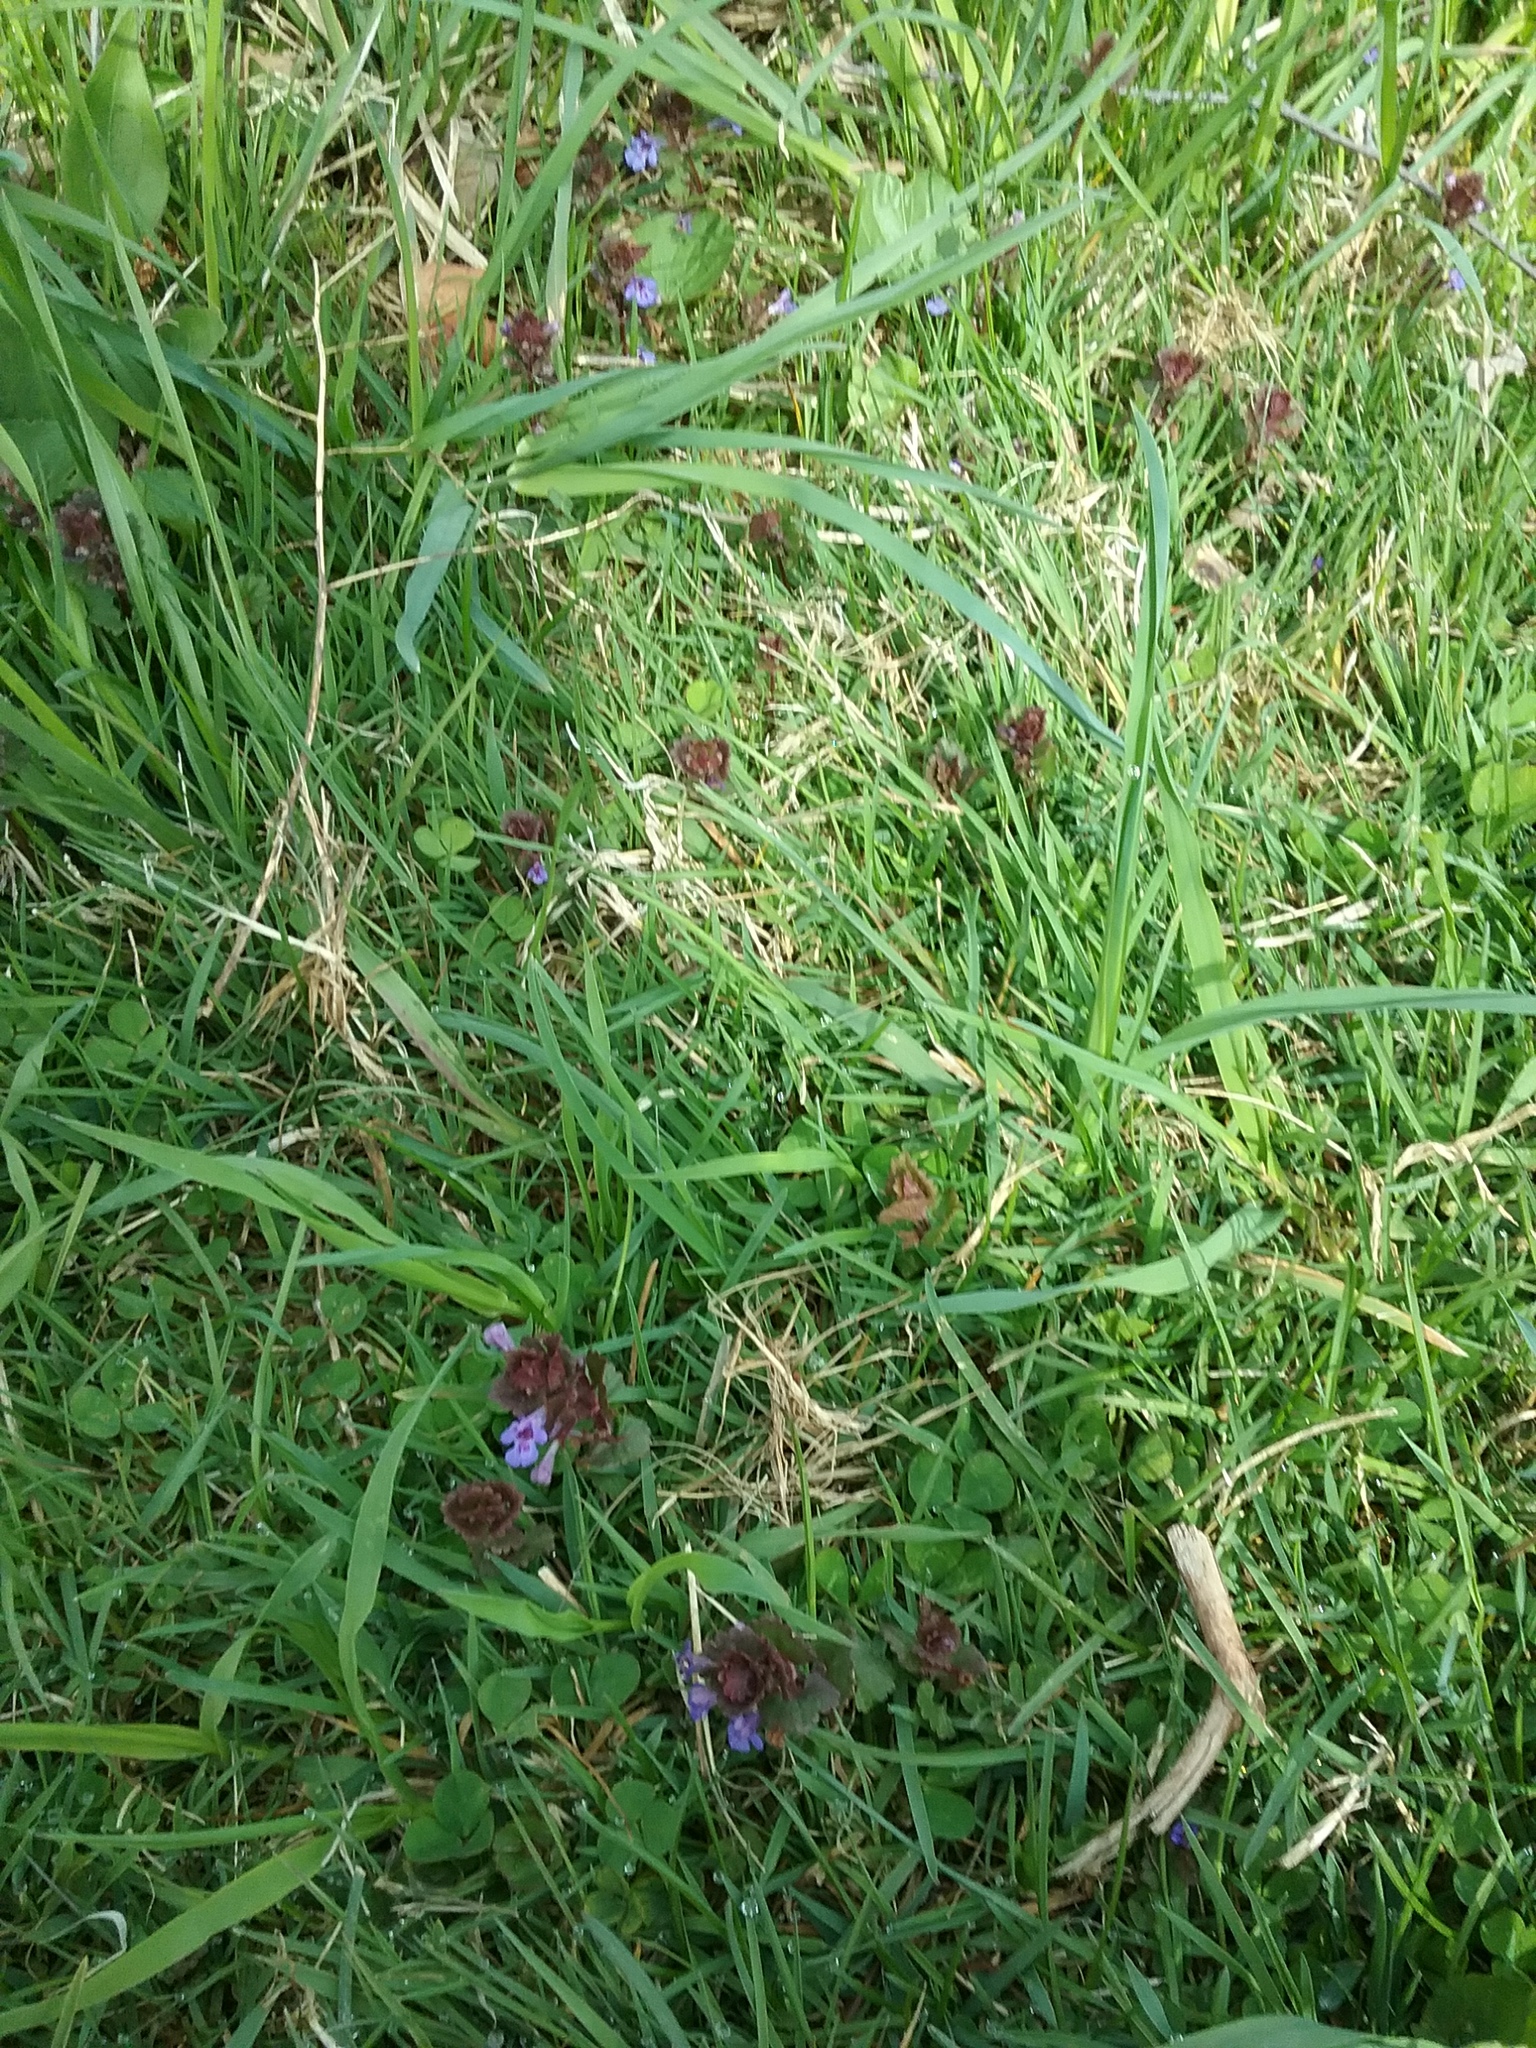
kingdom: Plantae
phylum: Tracheophyta
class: Magnoliopsida
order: Lamiales
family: Lamiaceae
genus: Glechoma
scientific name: Glechoma hederacea
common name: Ground ivy
